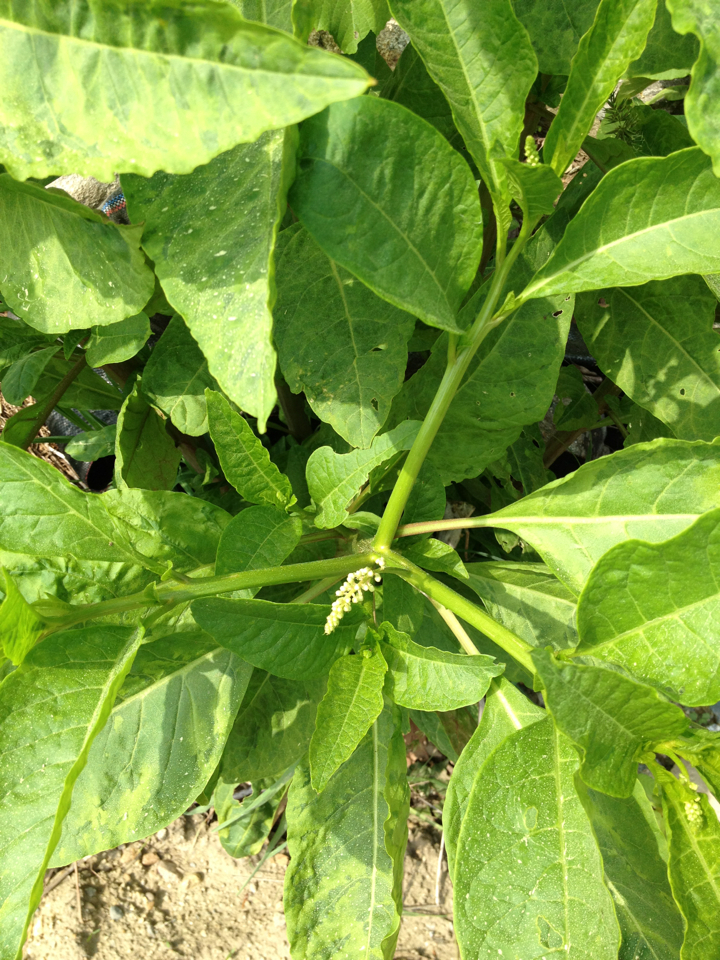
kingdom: Plantae
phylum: Tracheophyta
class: Magnoliopsida
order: Caryophyllales
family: Phytolaccaceae
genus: Phytolacca
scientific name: Phytolacca americana
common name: American pokeweed
